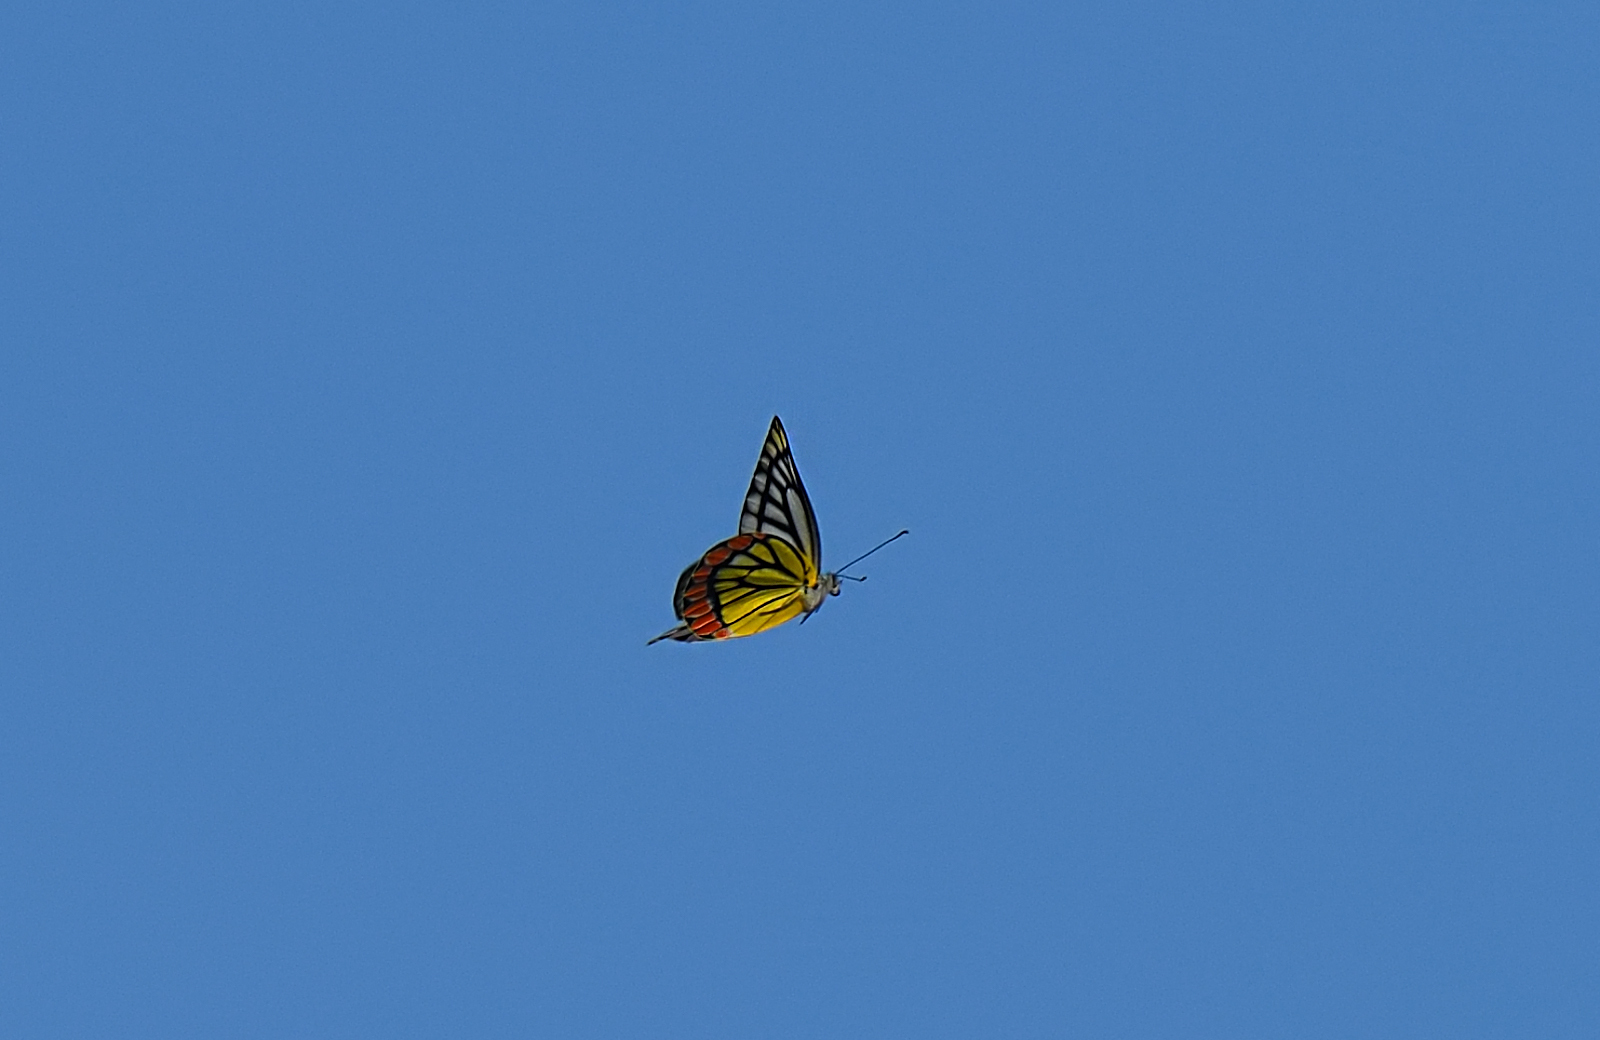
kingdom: Animalia
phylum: Arthropoda
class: Insecta
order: Lepidoptera
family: Pieridae
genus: Delias
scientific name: Delias eucharis
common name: Common jezebel
